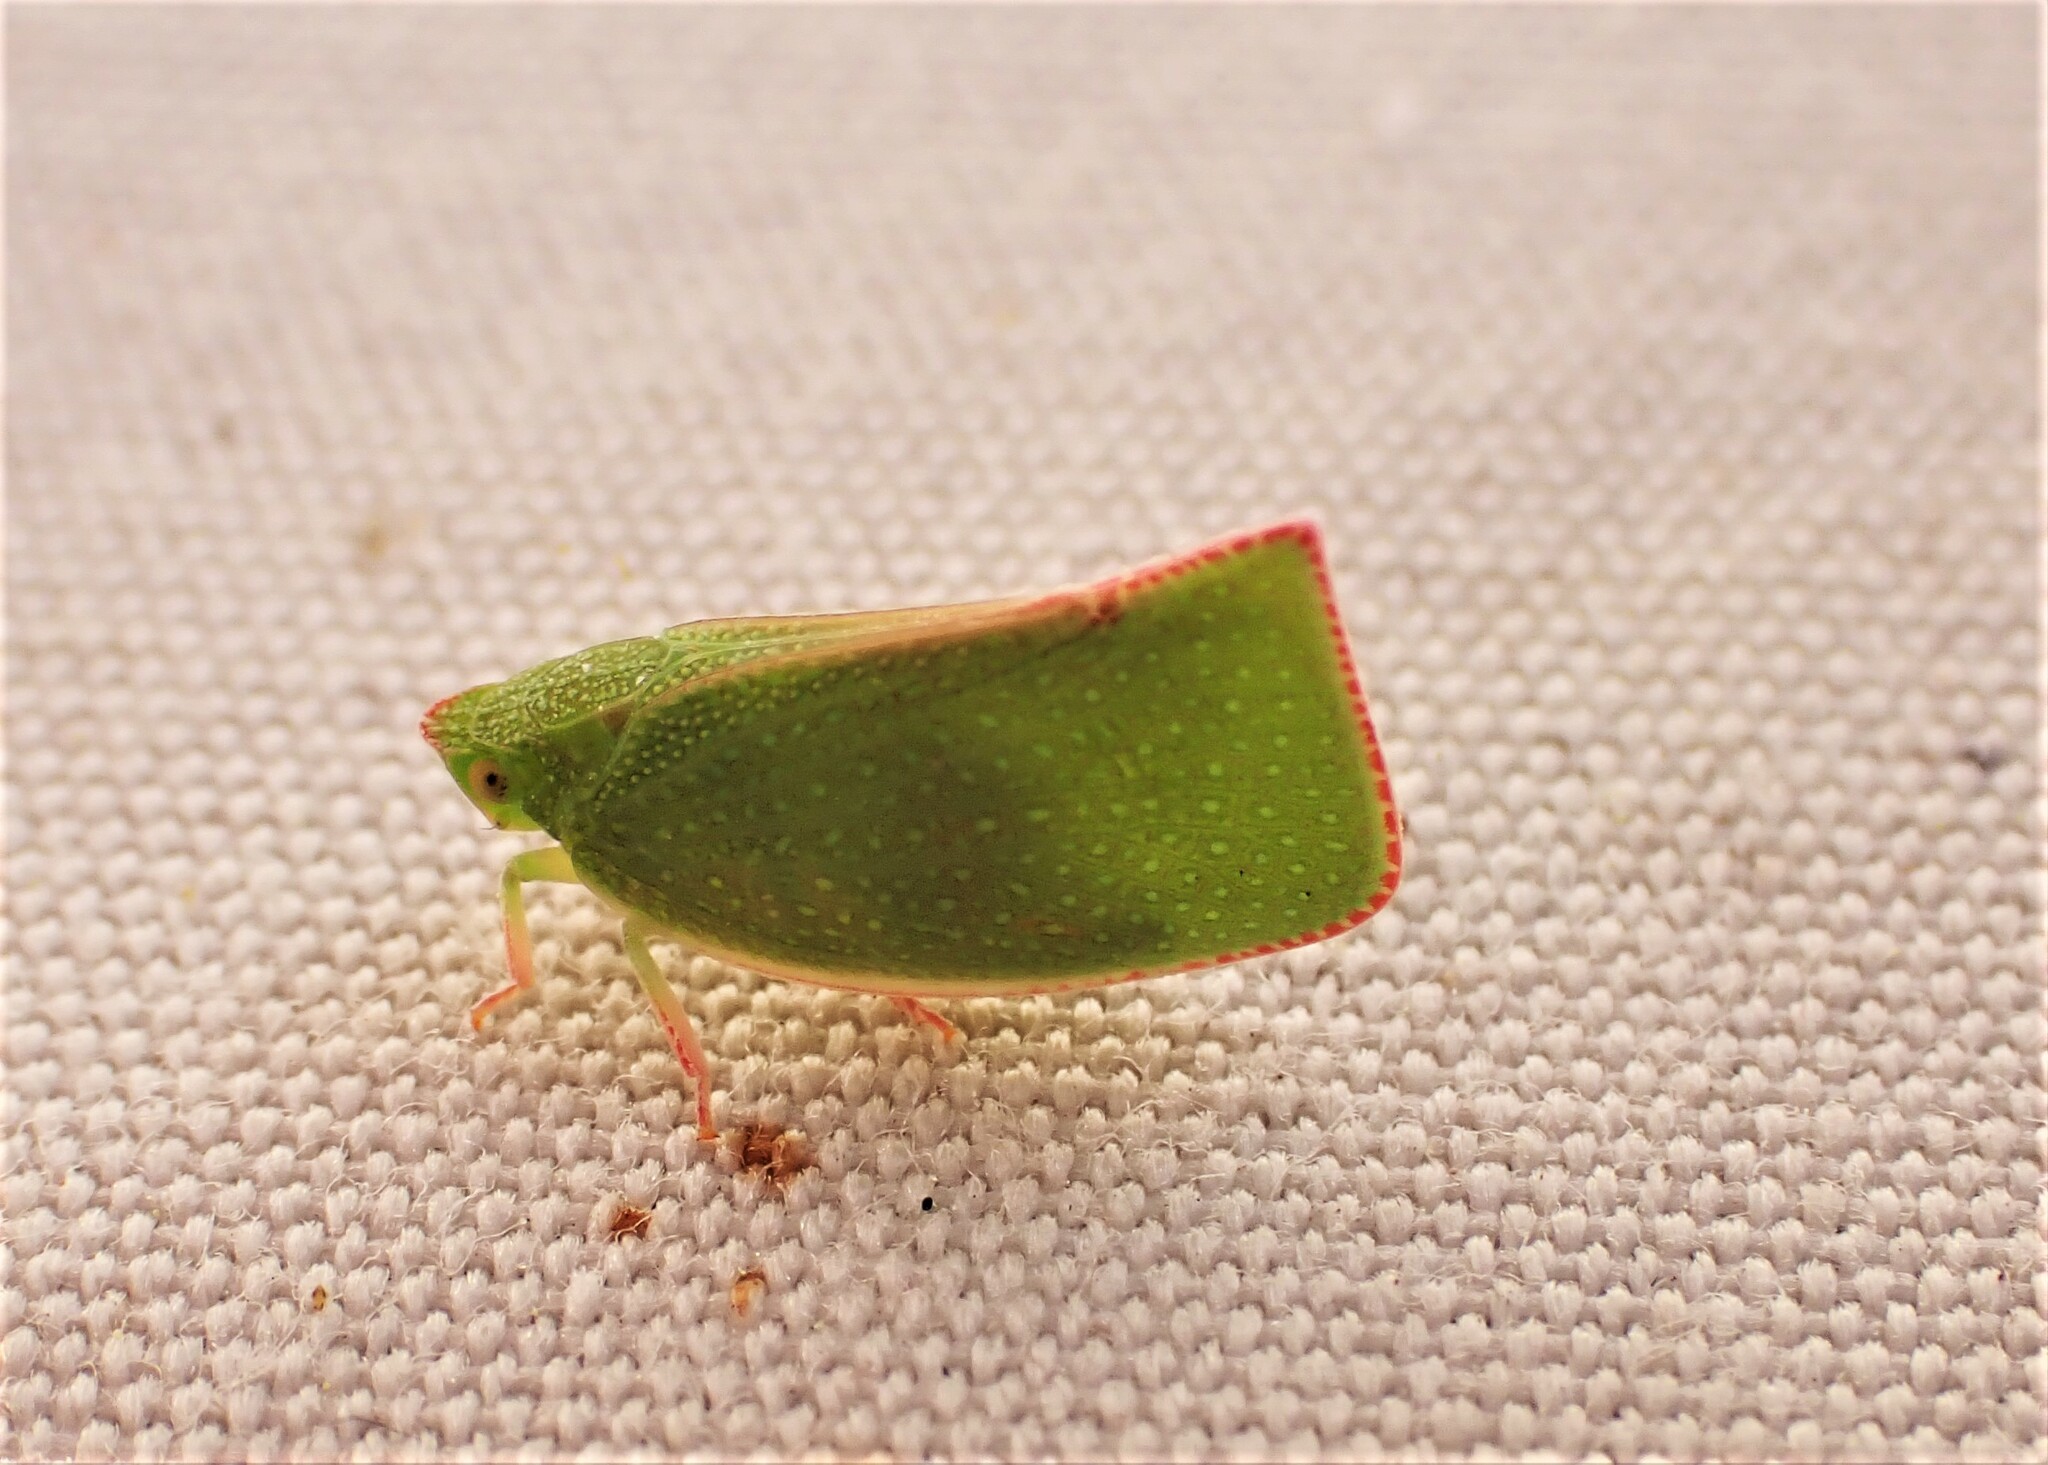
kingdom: Animalia
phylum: Arthropoda
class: Insecta
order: Hemiptera
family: Flatidae
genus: Siphanta
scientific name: Siphanta acuta
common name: Torpedo bug
